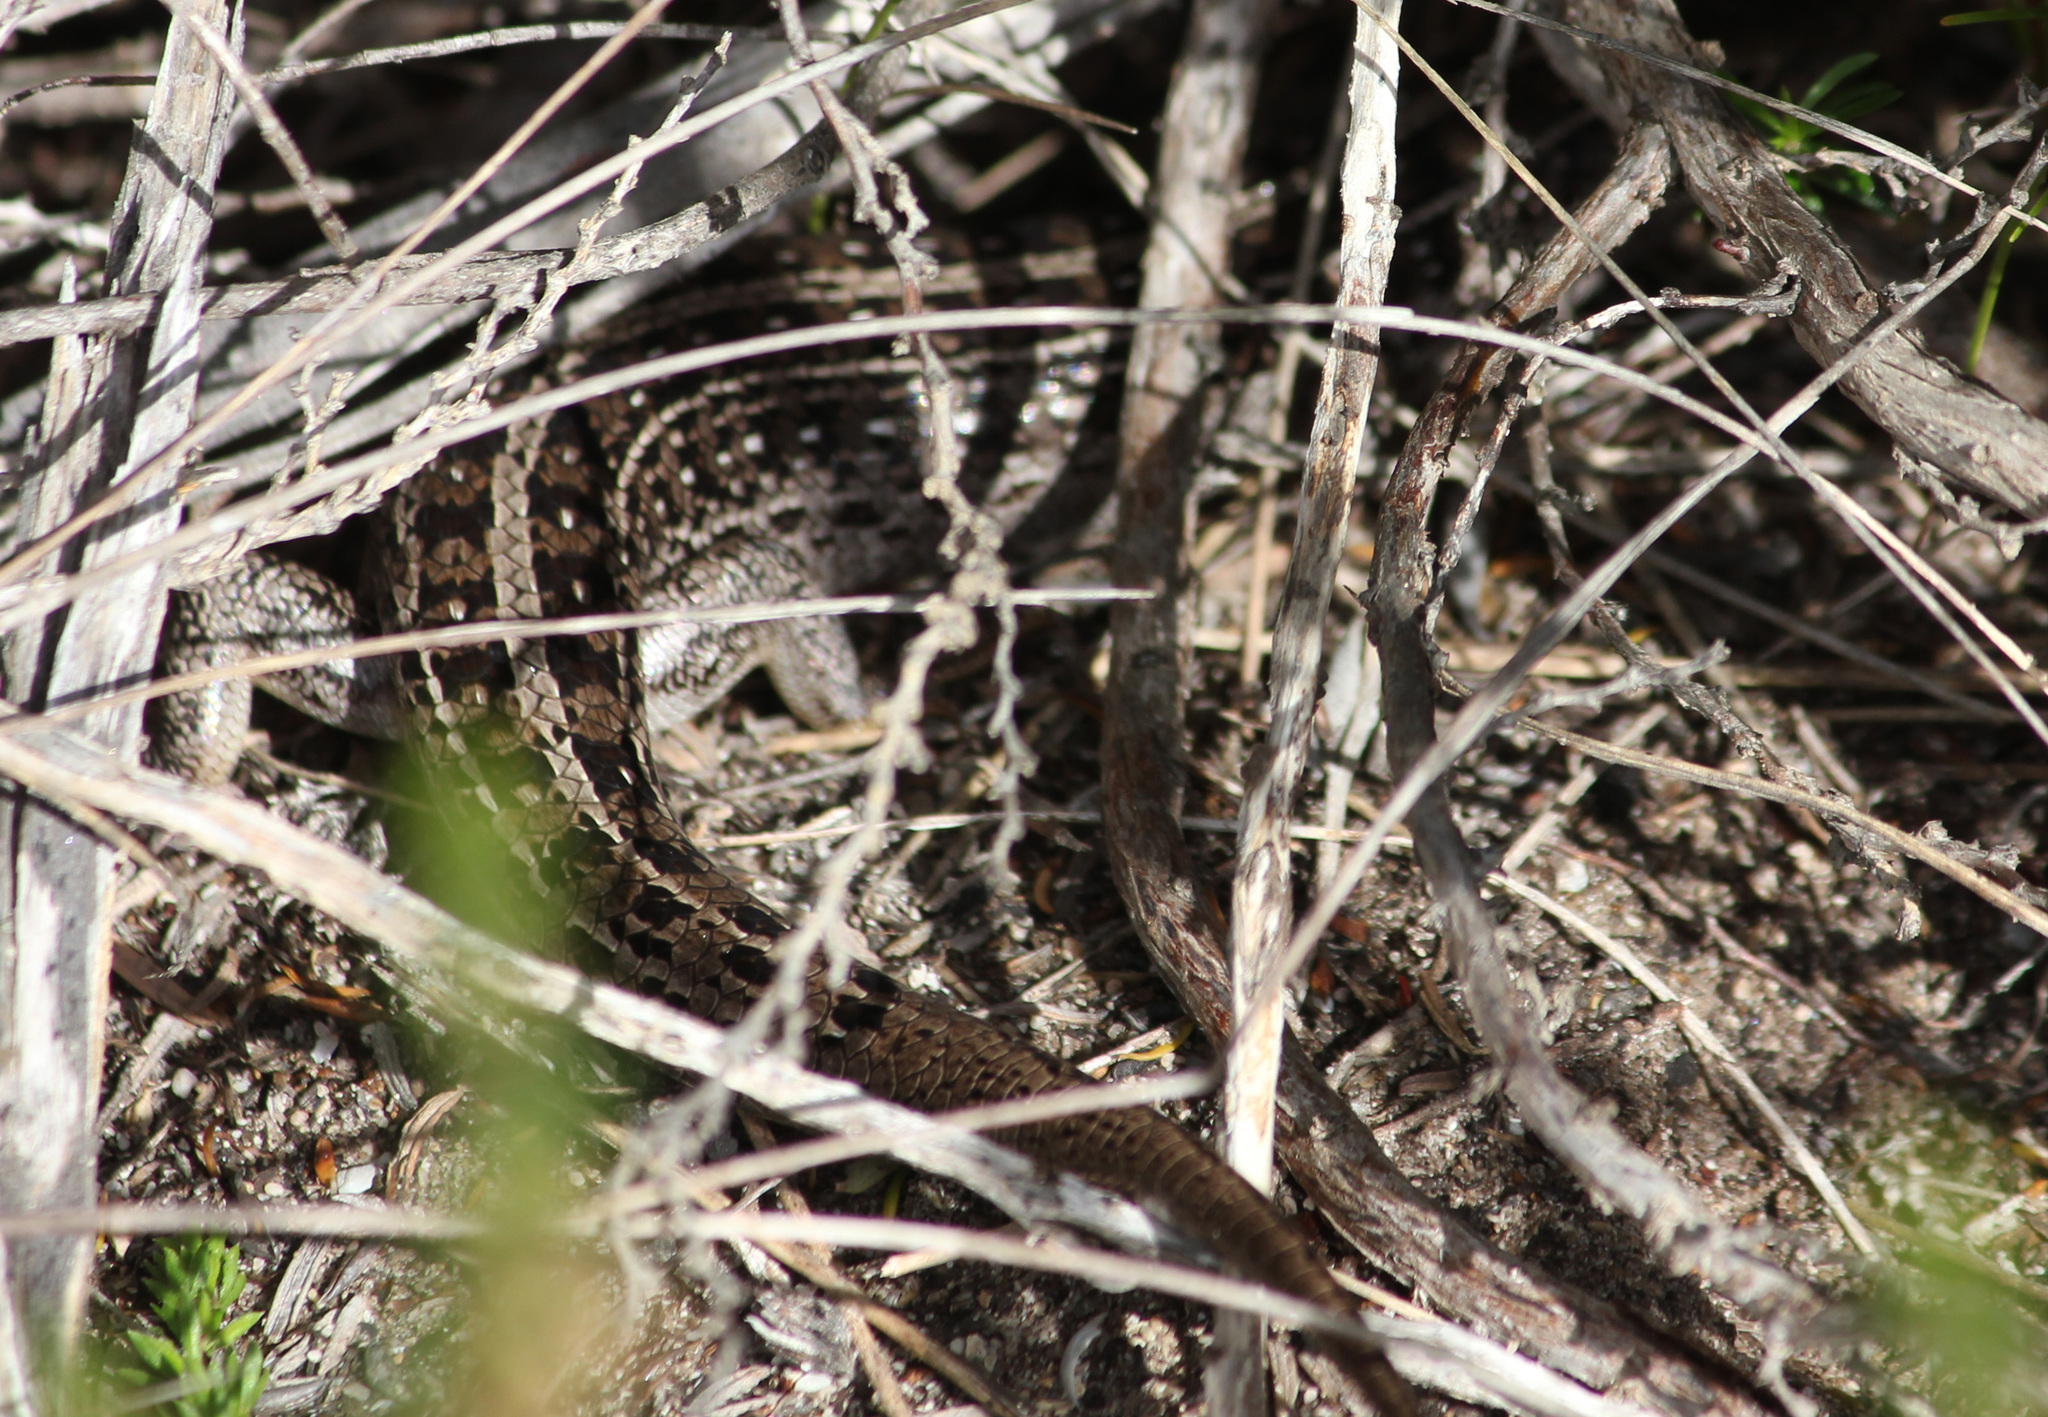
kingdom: Animalia
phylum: Chordata
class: Squamata
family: Scincidae
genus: Trachylepis
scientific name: Trachylepis capensis
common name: Cape skink
